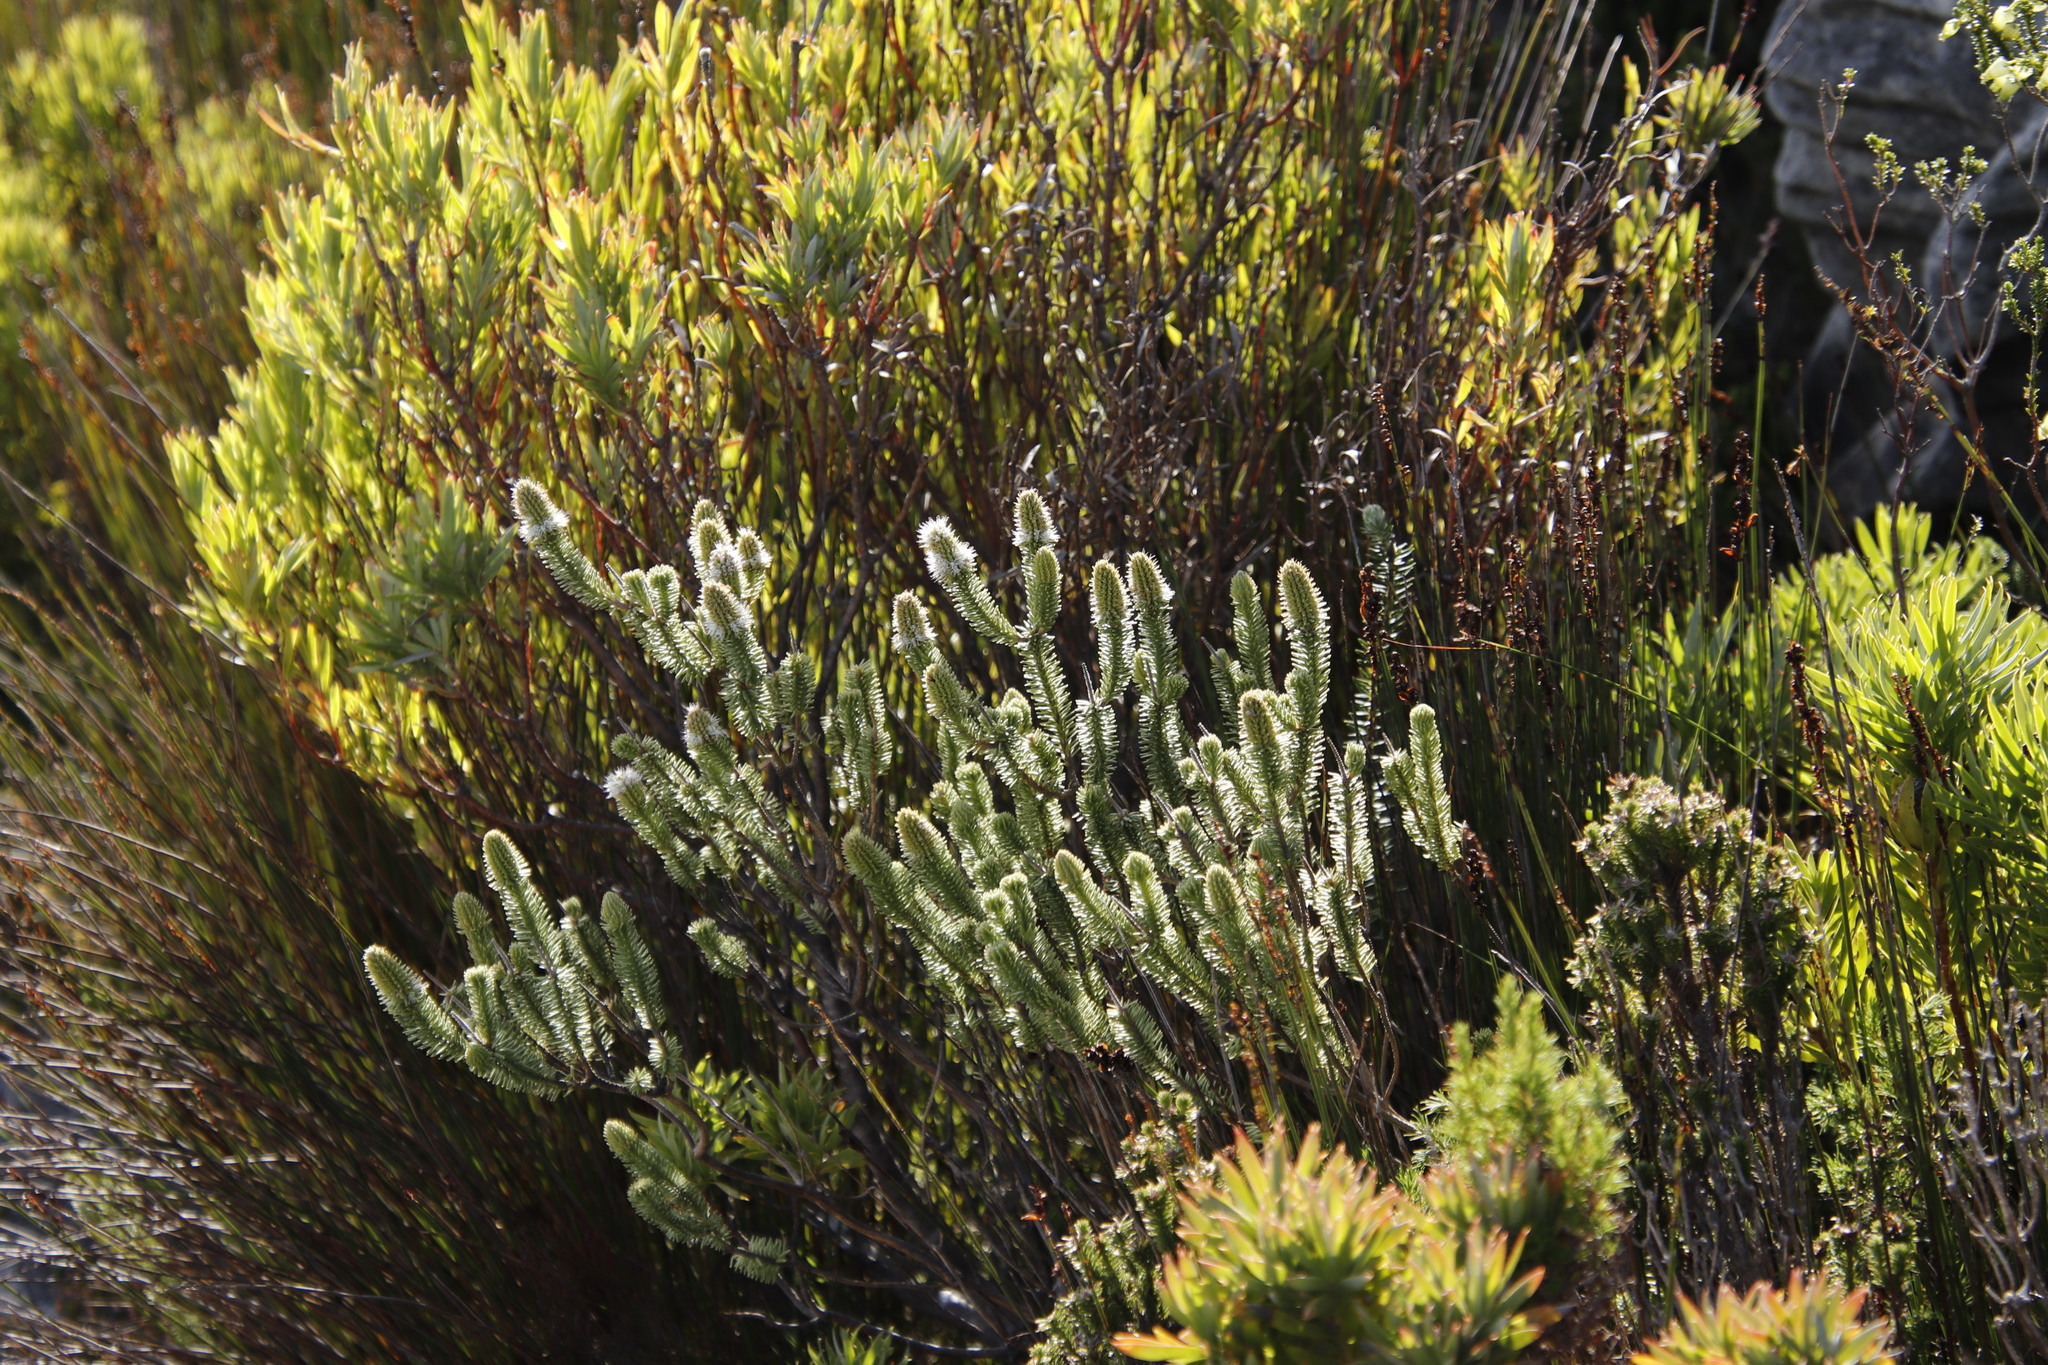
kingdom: Plantae
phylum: Tracheophyta
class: Magnoliopsida
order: Lamiales
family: Stilbaceae
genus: Stilbe
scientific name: Stilbe vestita
